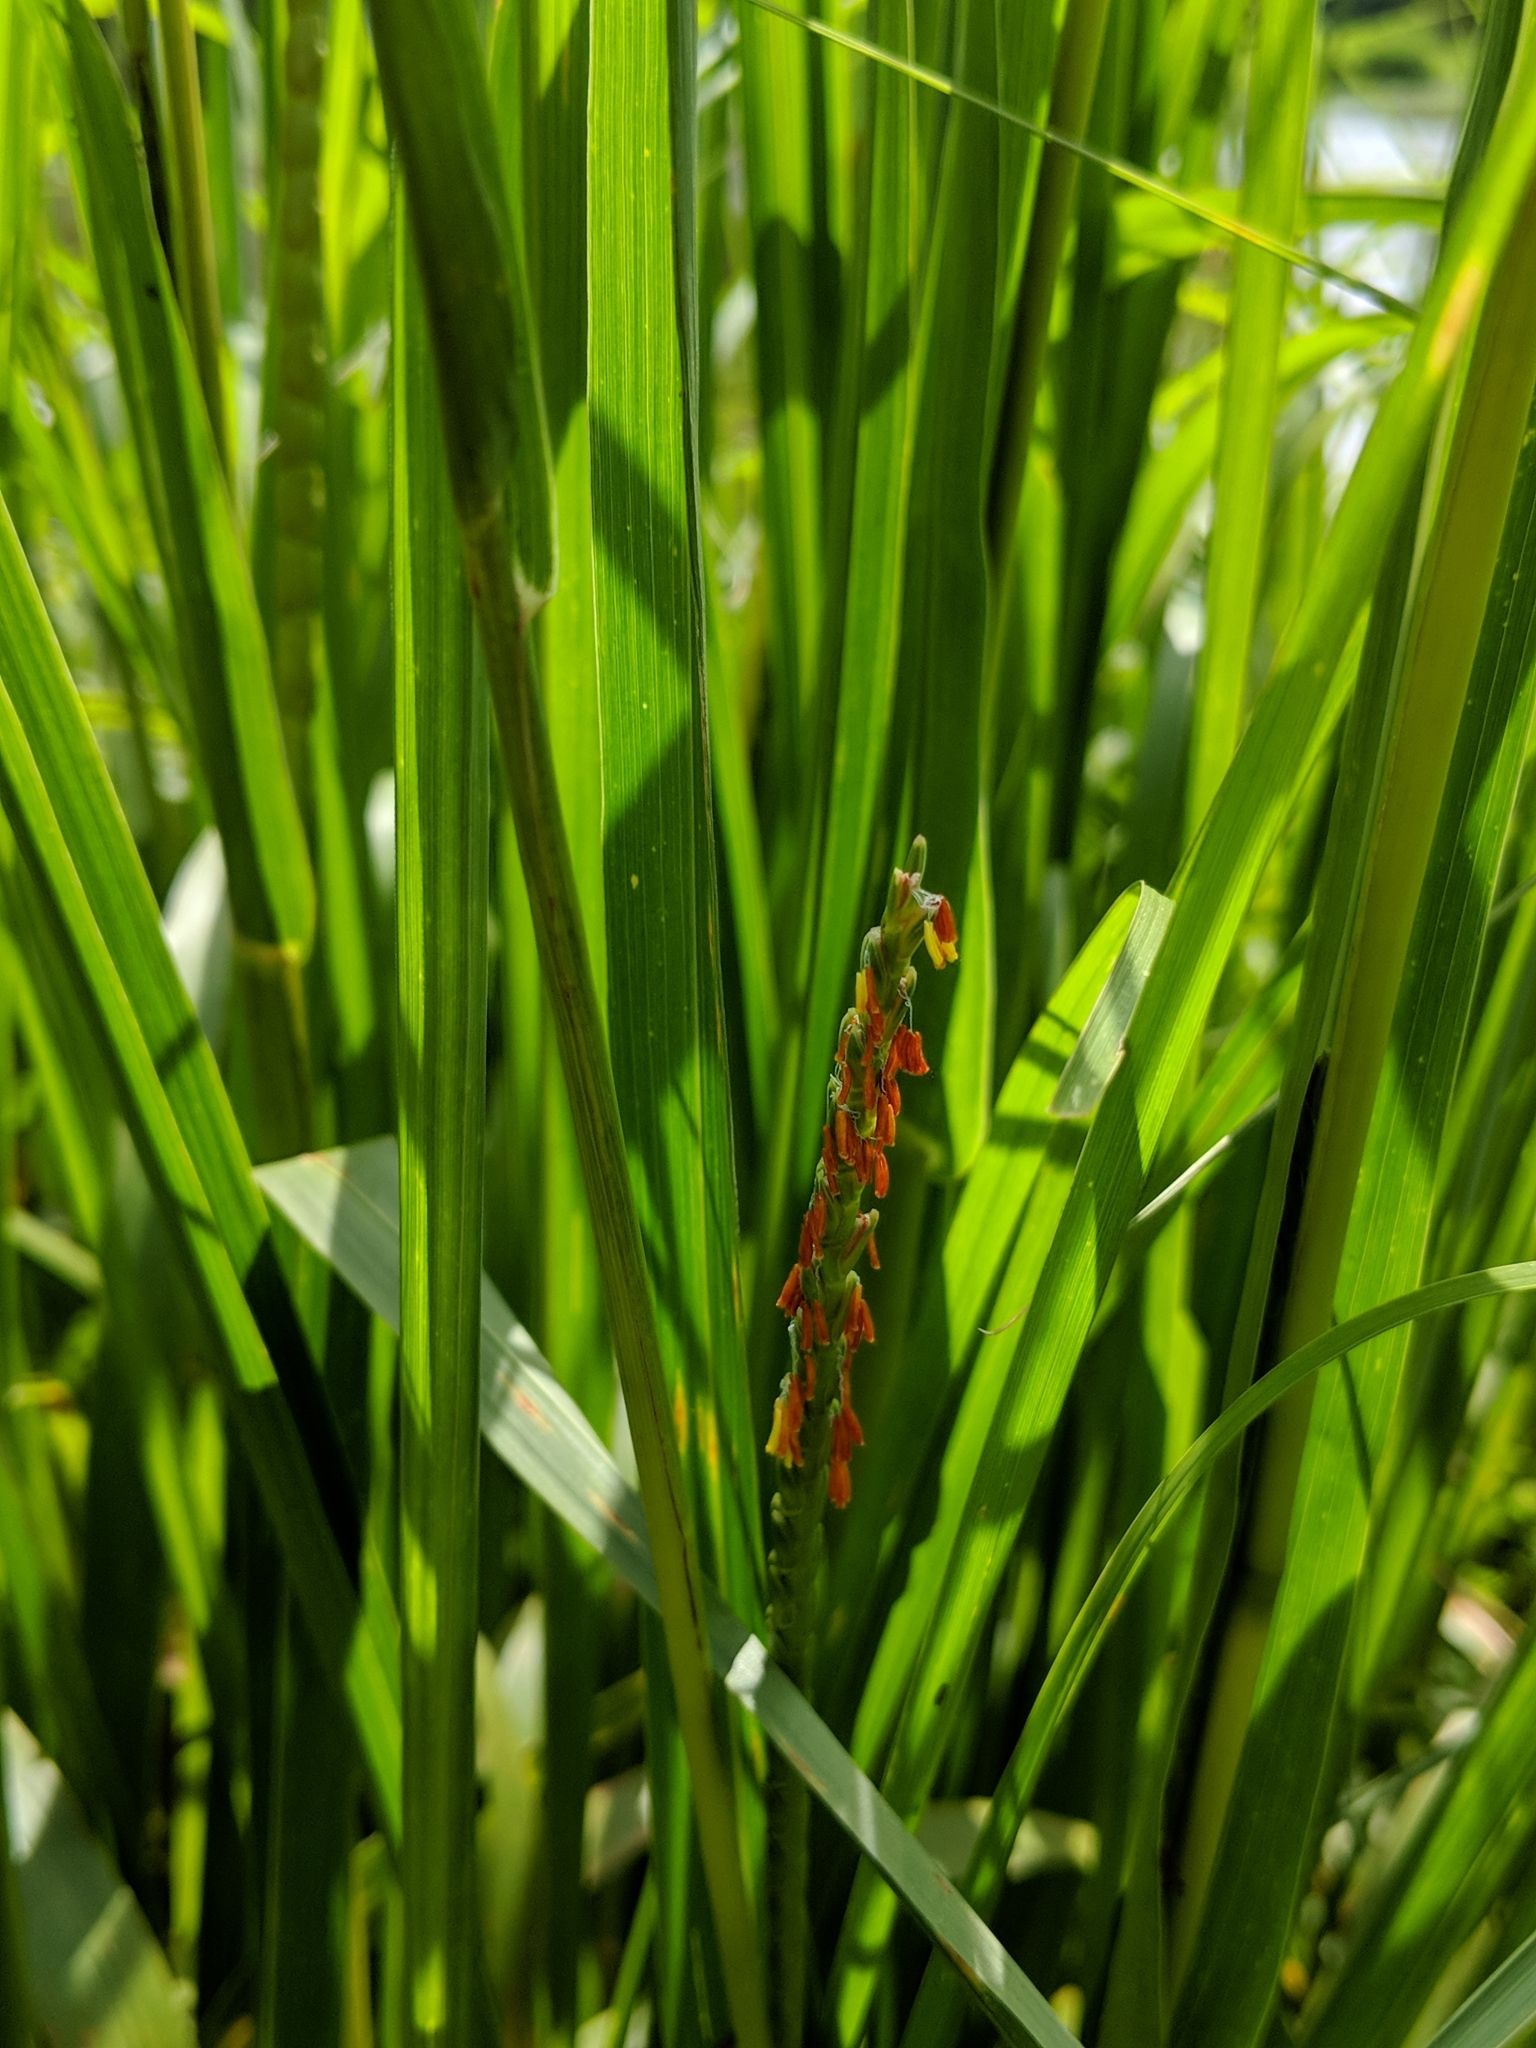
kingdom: Plantae
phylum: Tracheophyta
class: Liliopsida
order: Poales
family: Poaceae
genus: Tripsacum
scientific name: Tripsacum dactyloides
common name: Buffalo-grass
